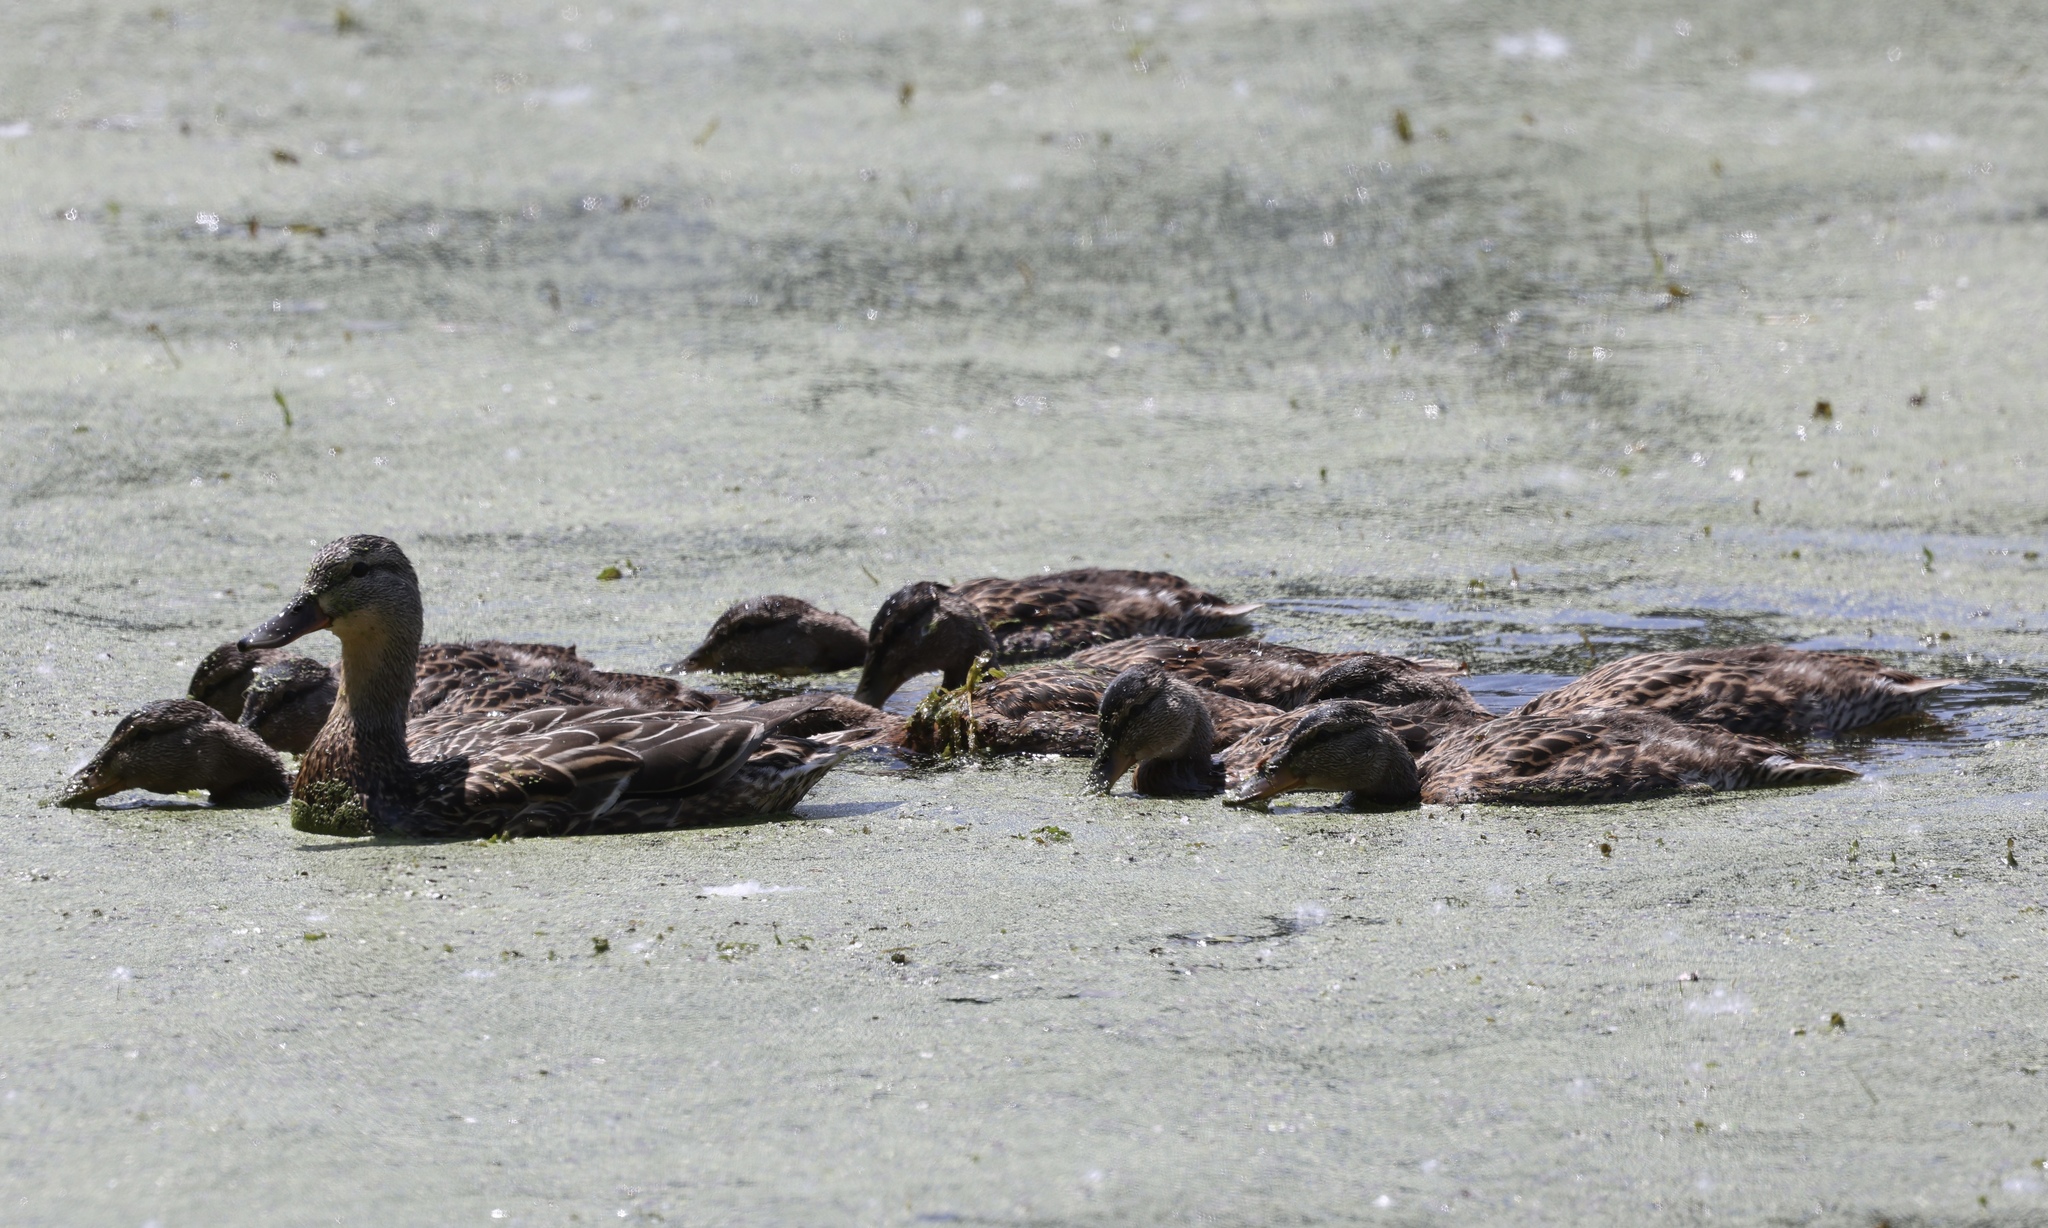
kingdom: Animalia
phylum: Chordata
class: Aves
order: Anseriformes
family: Anatidae
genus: Anas
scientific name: Anas platyrhynchos
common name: Mallard
